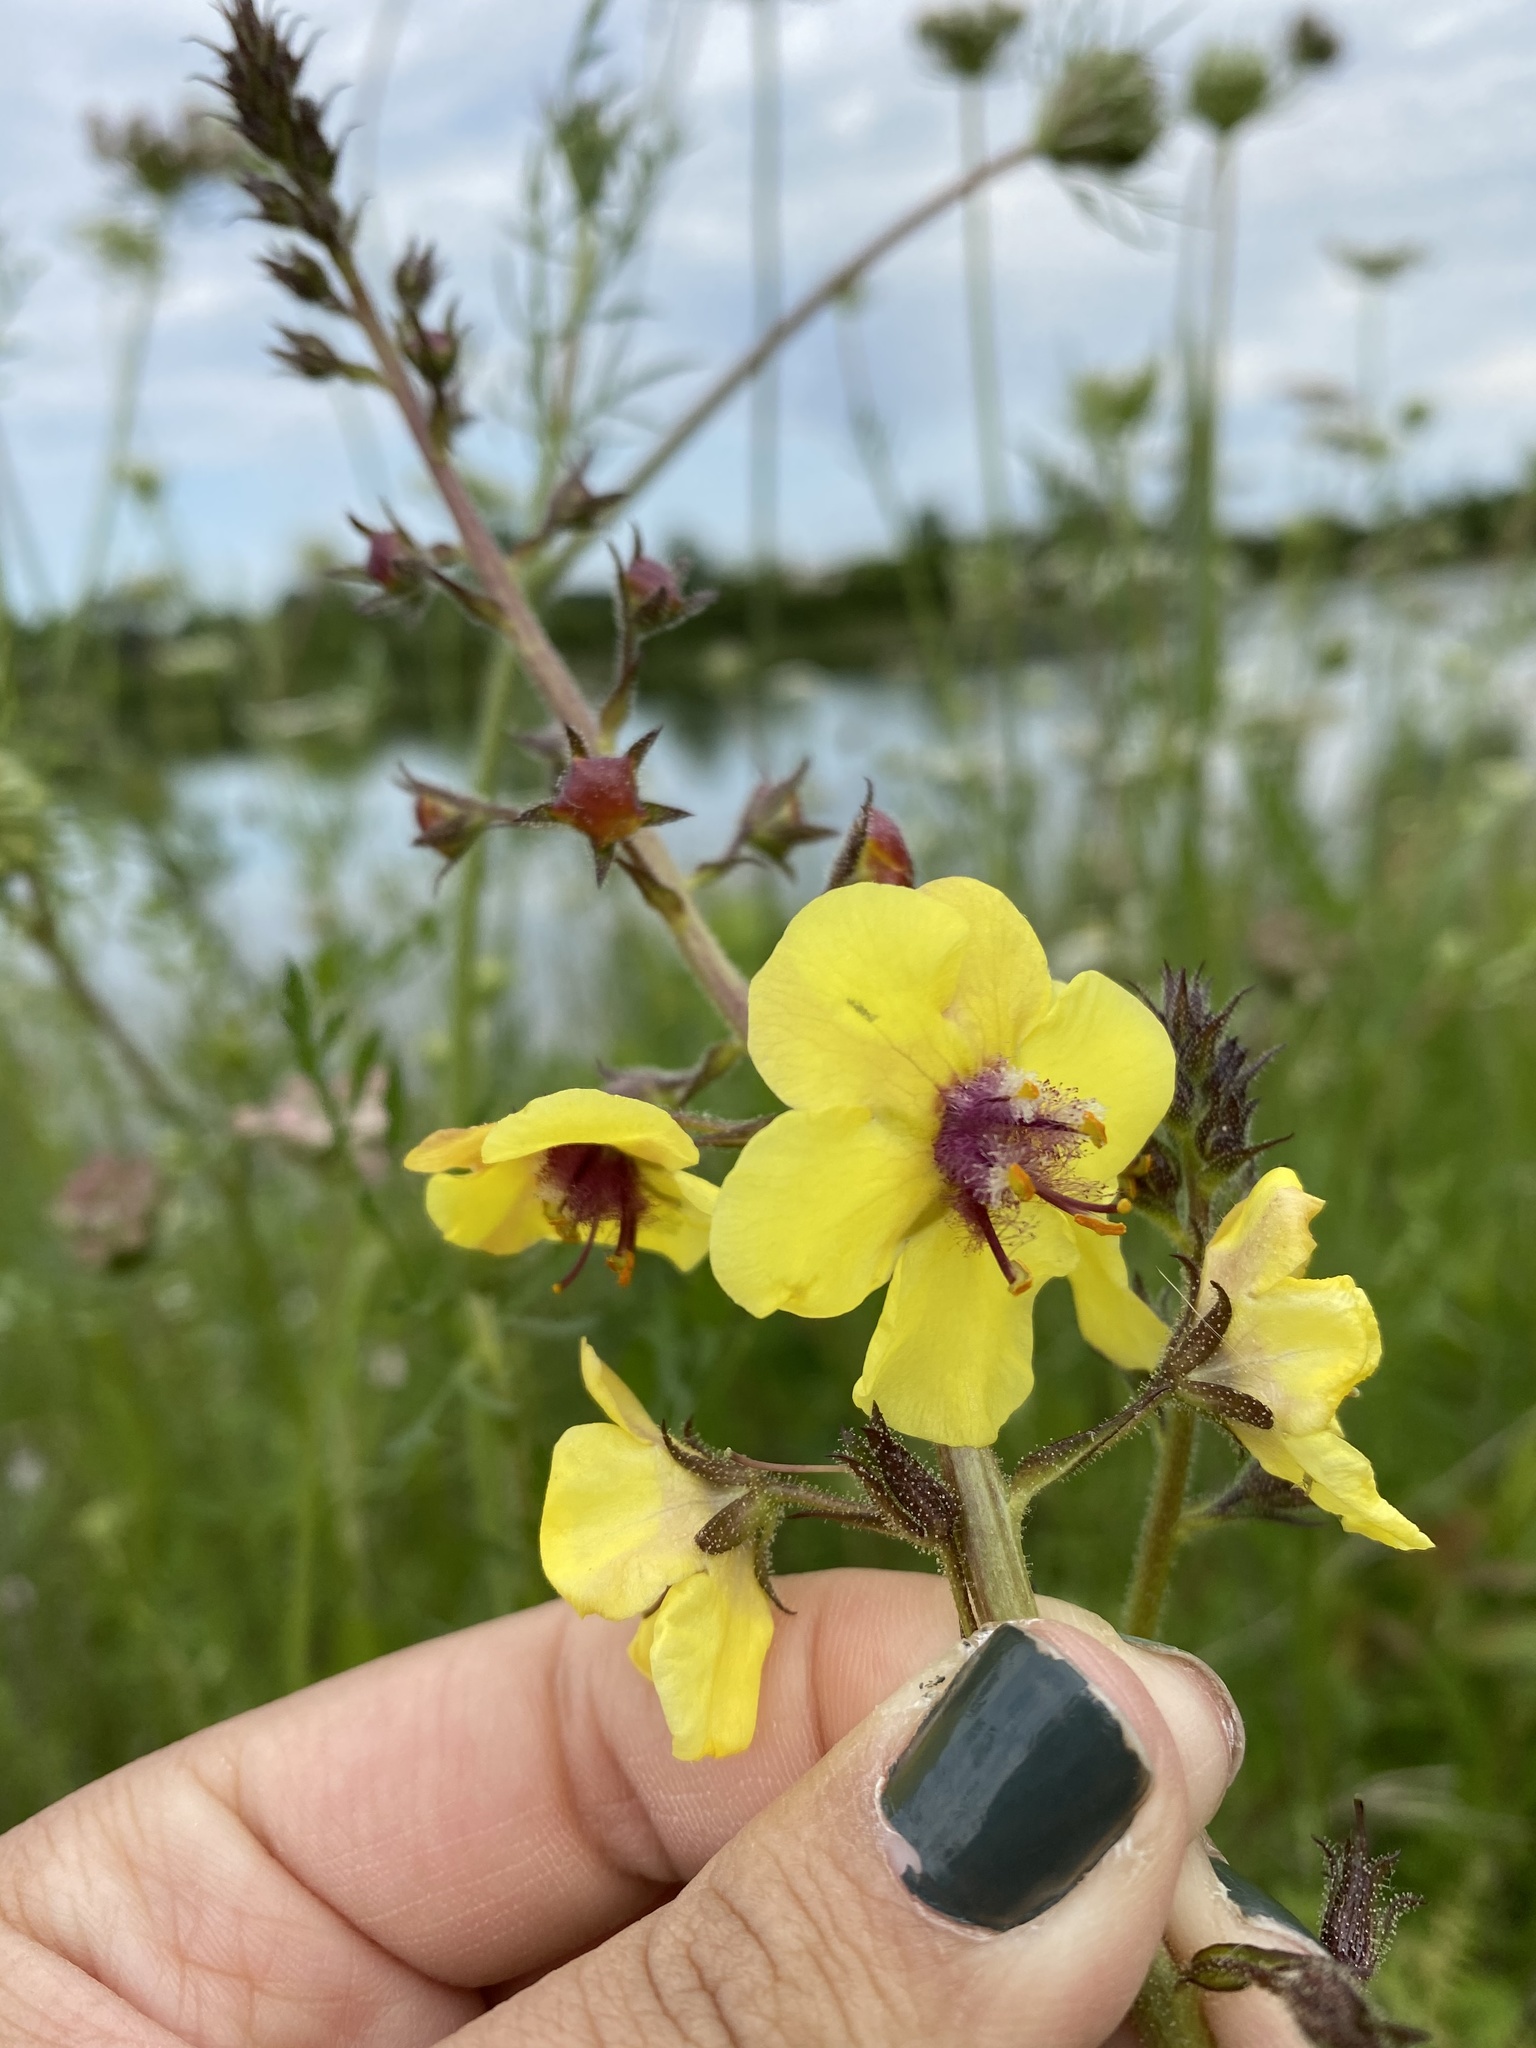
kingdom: Plantae
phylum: Tracheophyta
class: Magnoliopsida
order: Lamiales
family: Scrophulariaceae
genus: Verbascum
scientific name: Verbascum blattaria
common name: Moth mullein
